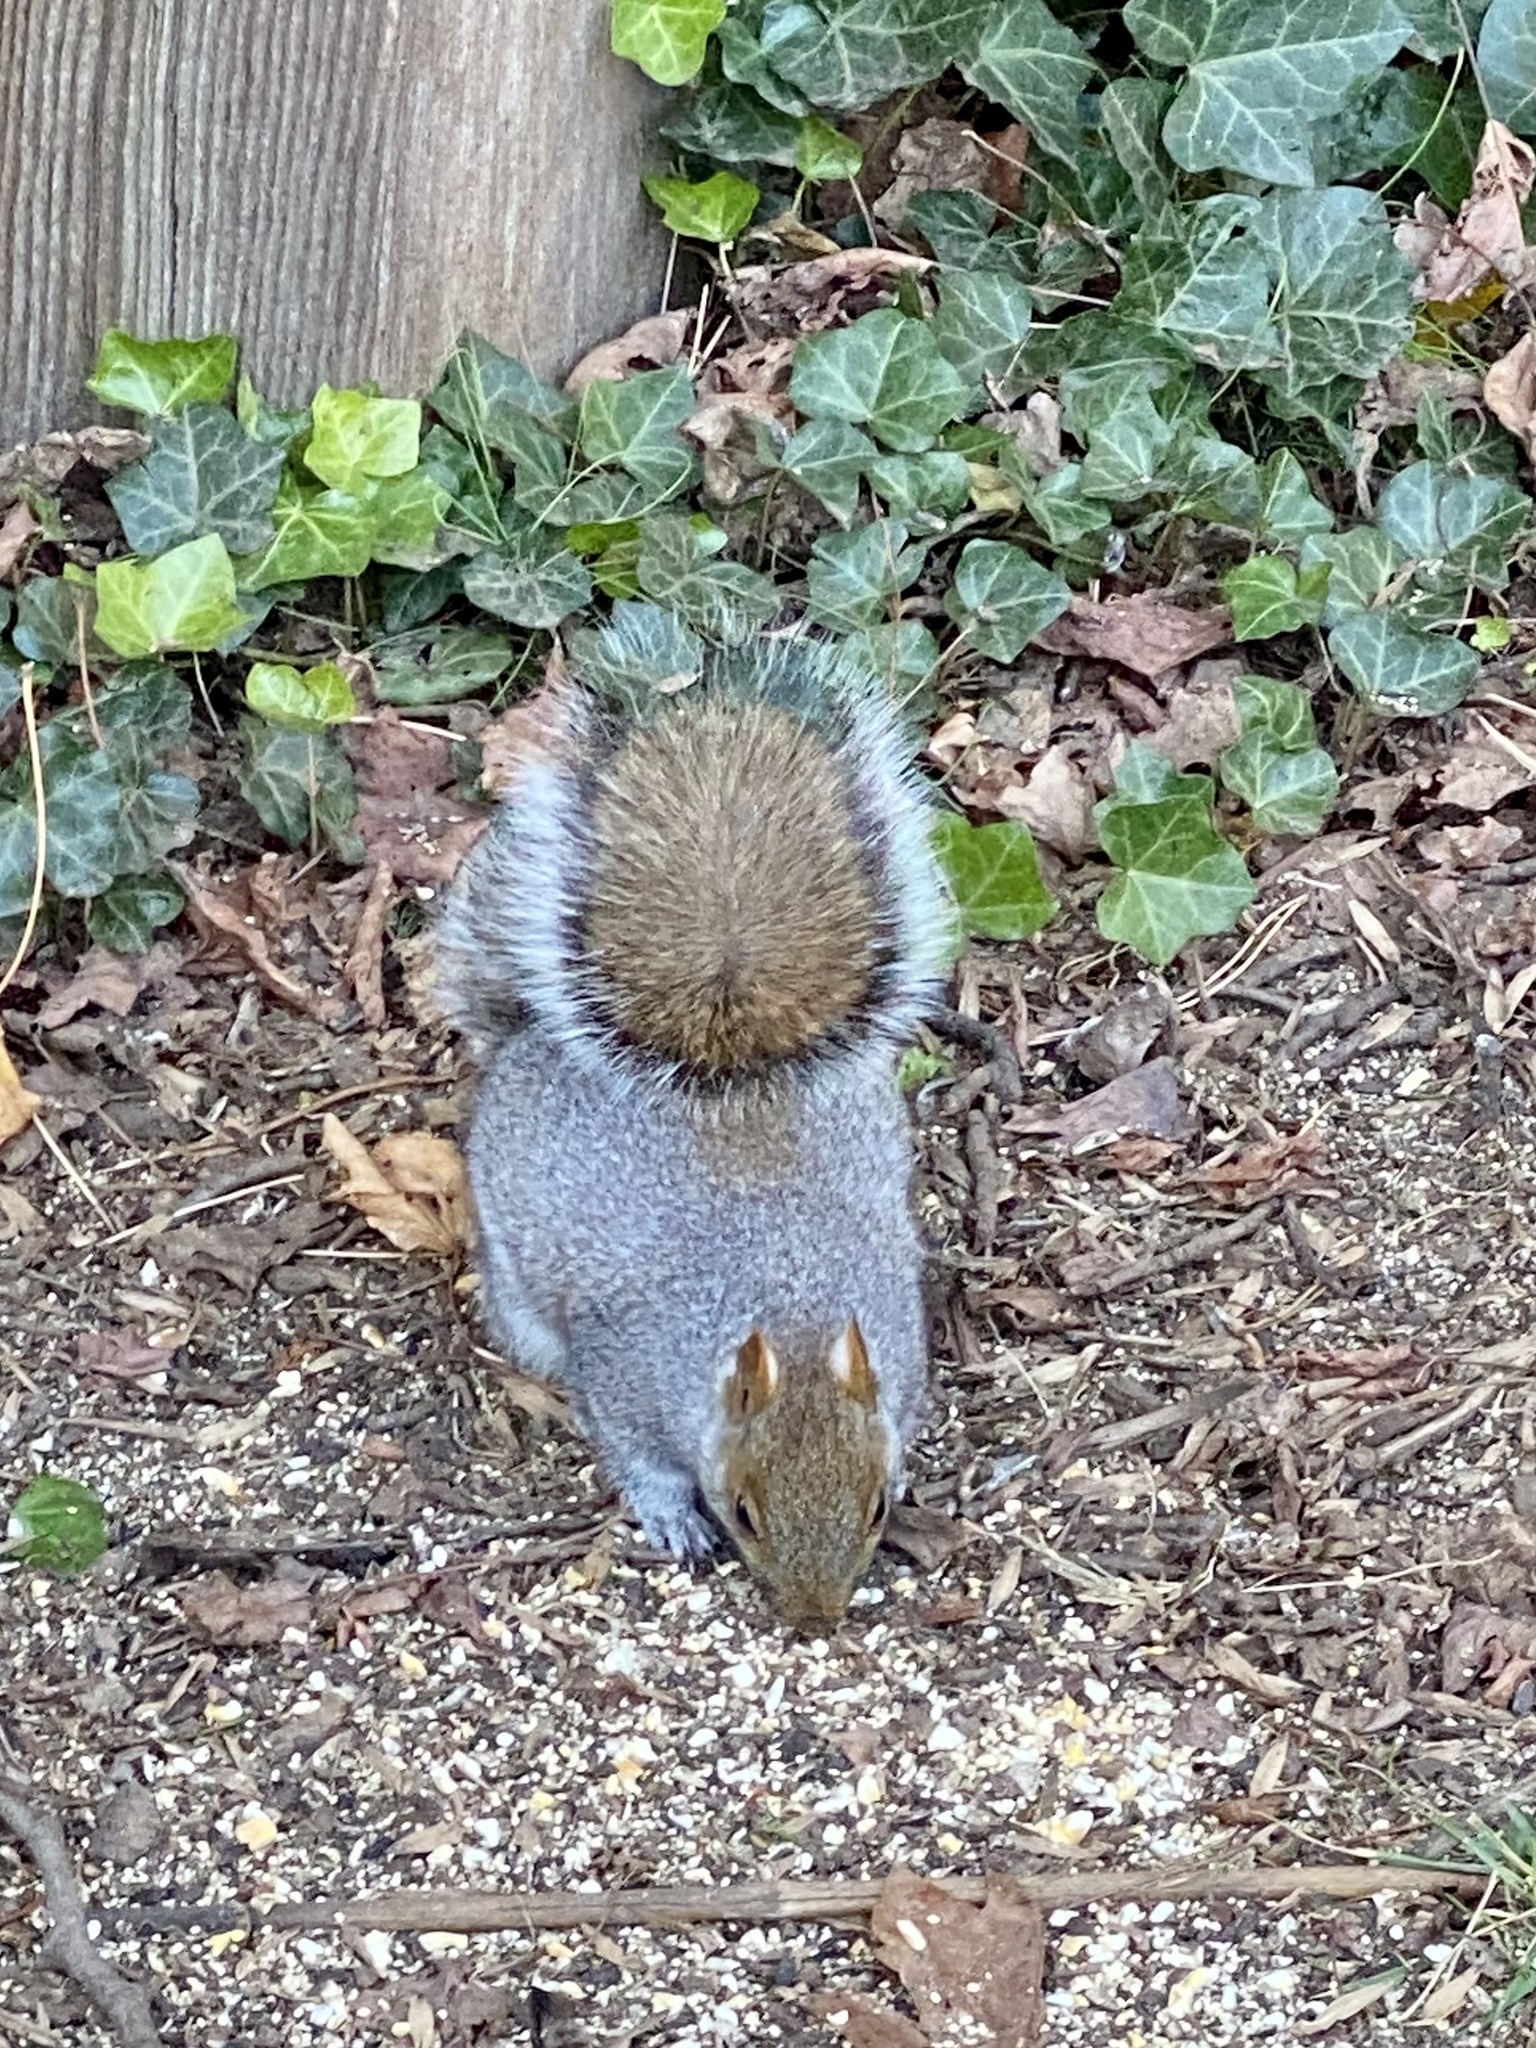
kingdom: Animalia
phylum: Chordata
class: Mammalia
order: Rodentia
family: Sciuridae
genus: Sciurus
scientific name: Sciurus carolinensis
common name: Eastern gray squirrel
